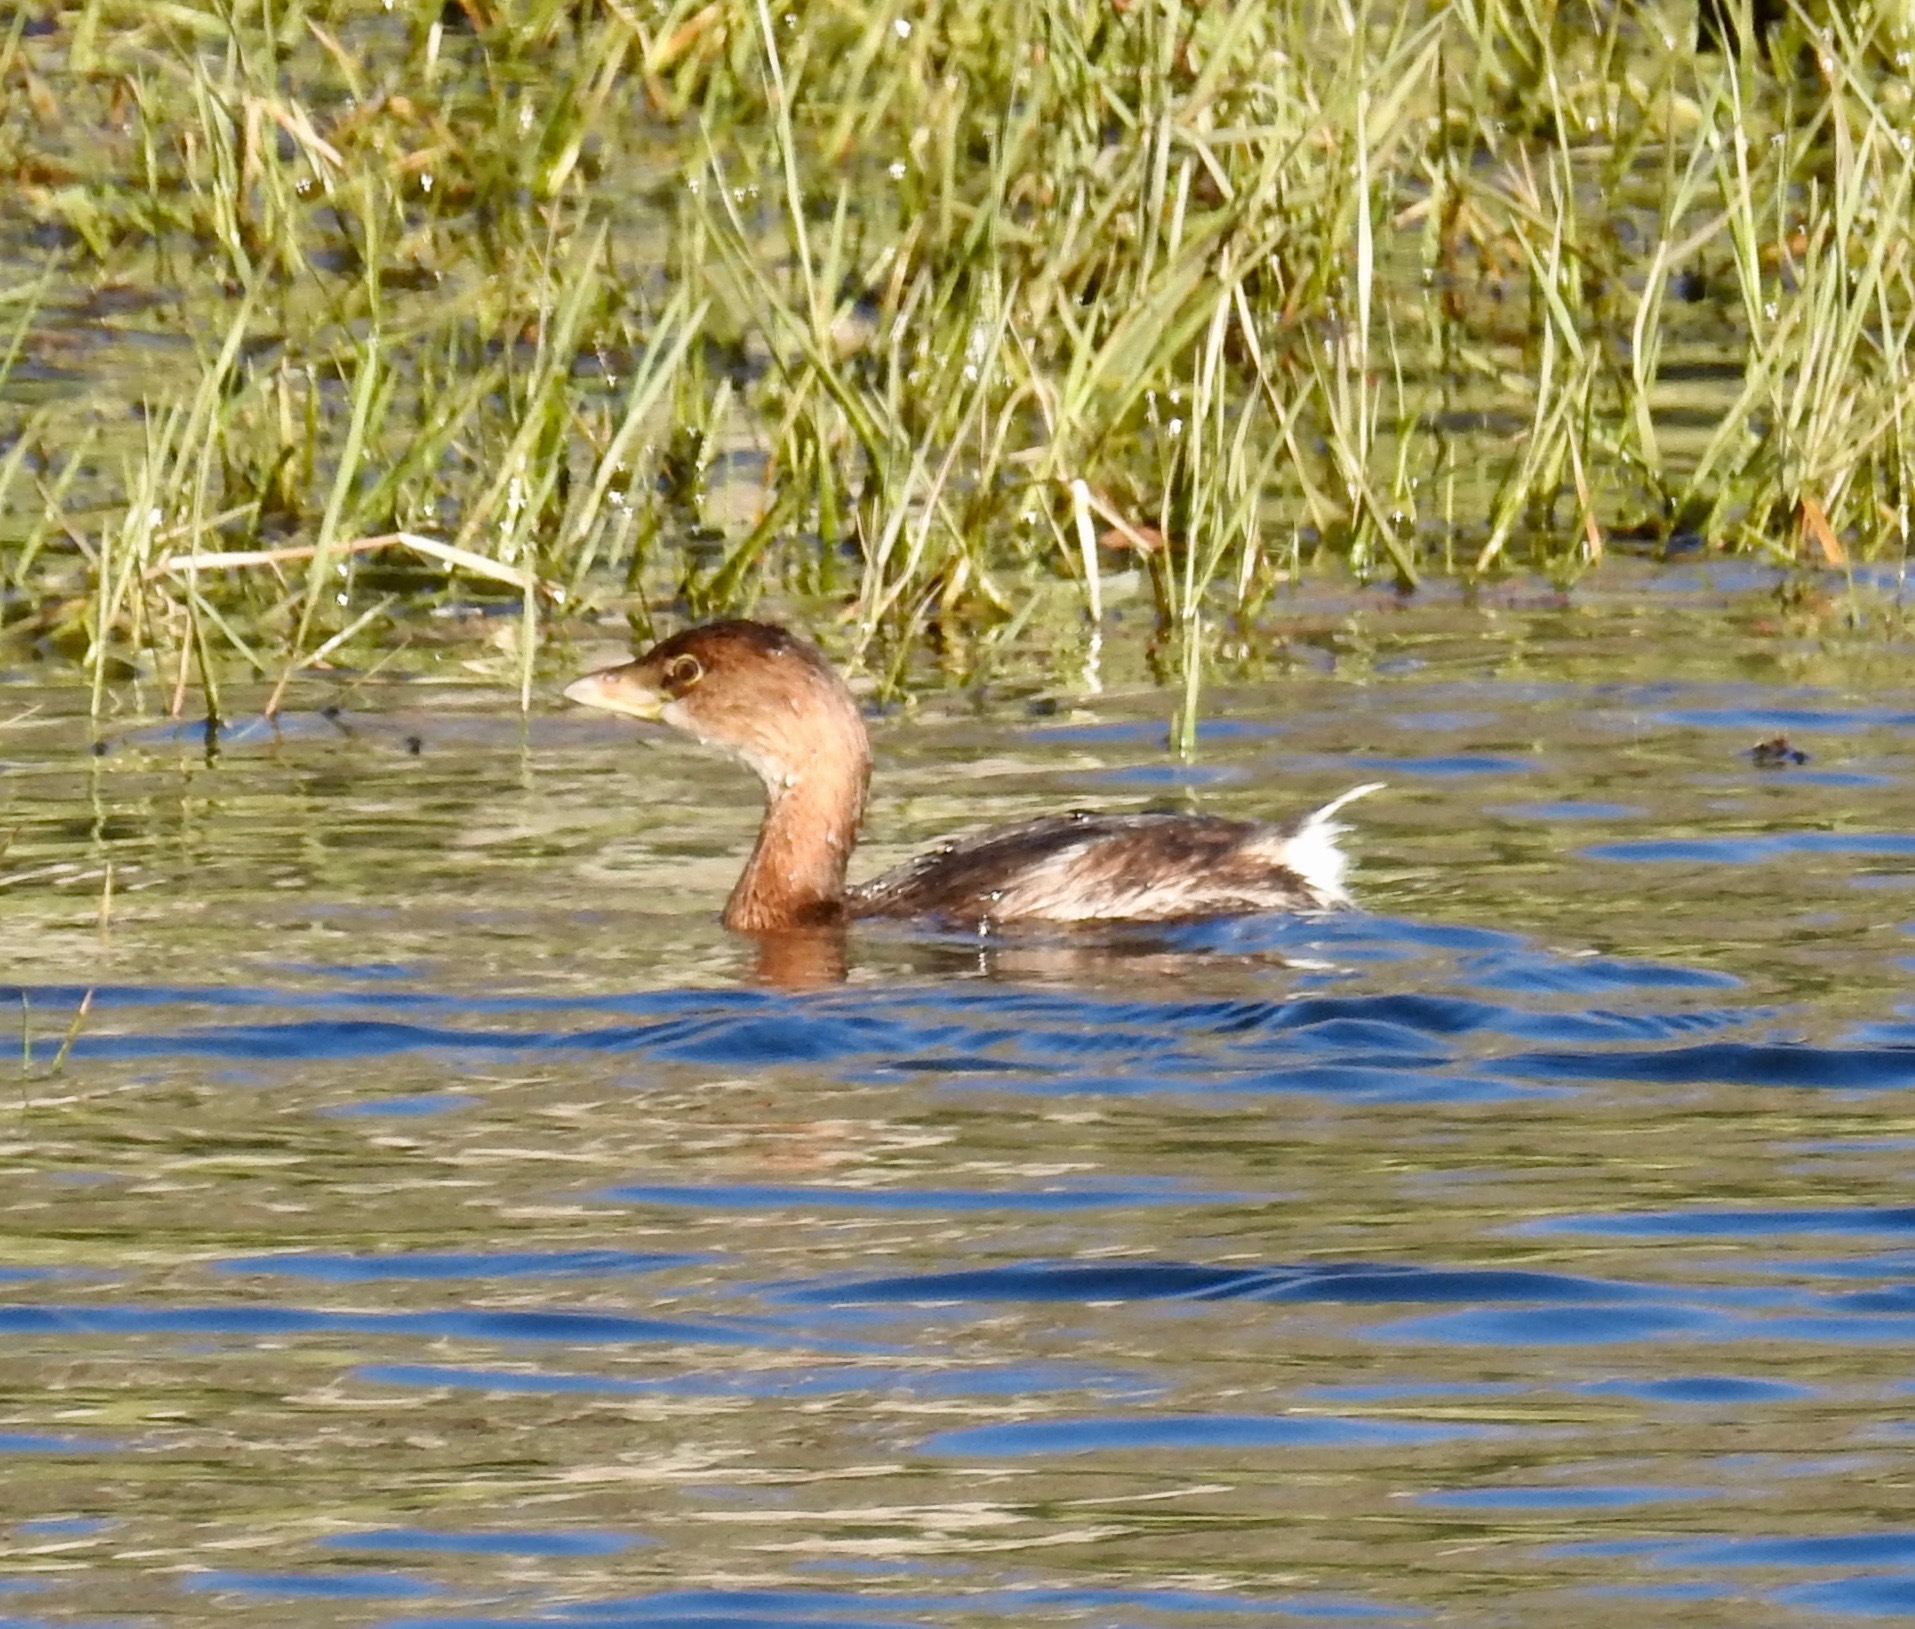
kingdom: Animalia
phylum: Chordata
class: Aves
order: Podicipediformes
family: Podicipedidae
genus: Podilymbus
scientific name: Podilymbus podiceps
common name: Pied-billed grebe
